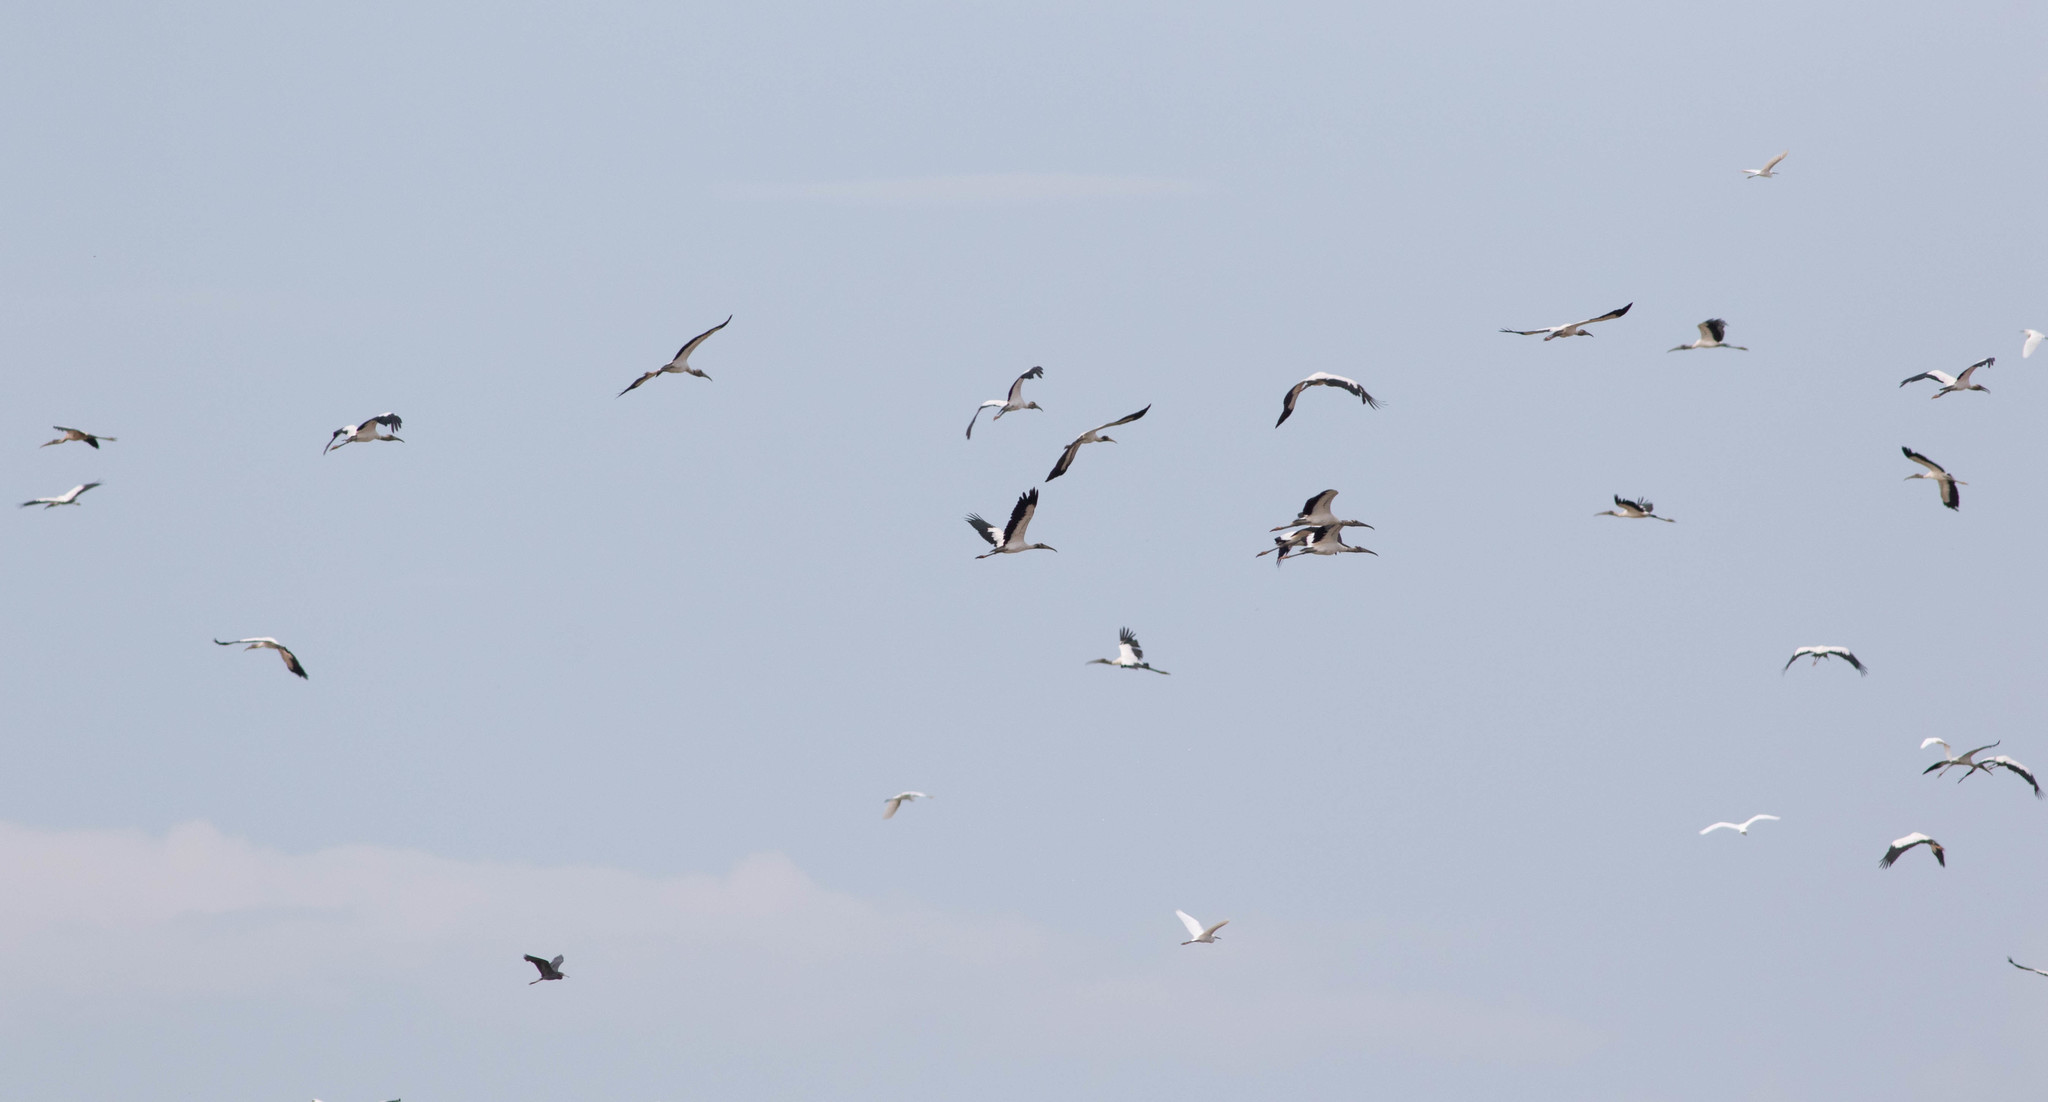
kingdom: Animalia
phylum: Chordata
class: Aves
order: Ciconiiformes
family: Ciconiidae
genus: Mycteria
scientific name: Mycteria americana
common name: Wood stork
